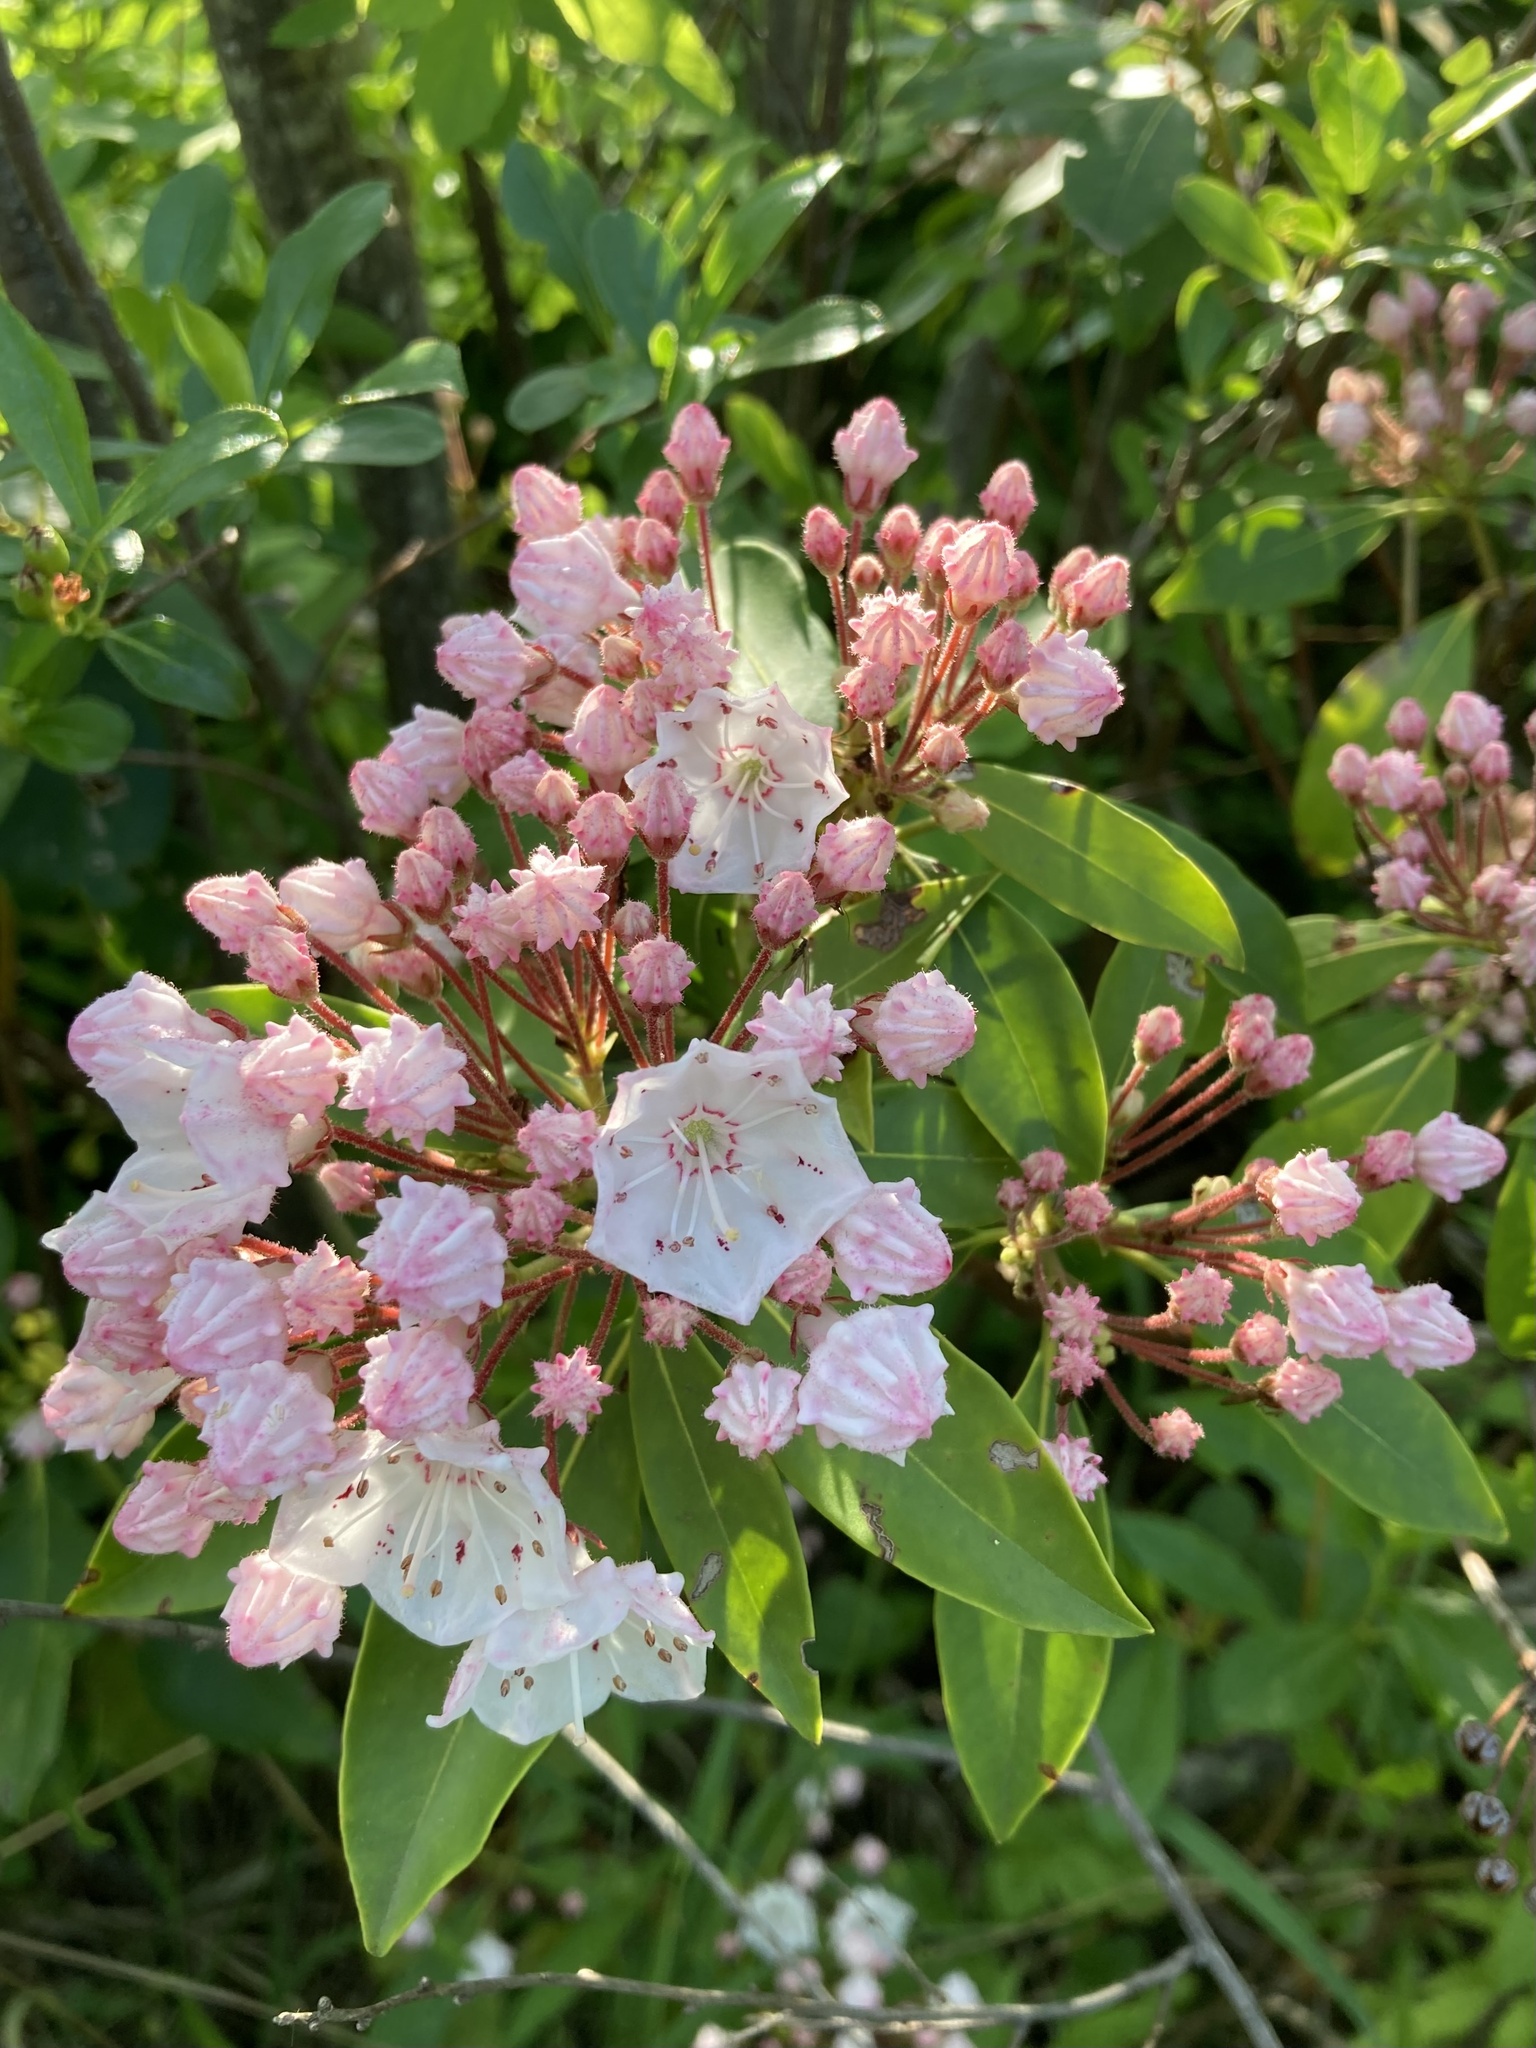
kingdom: Plantae
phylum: Tracheophyta
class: Magnoliopsida
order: Ericales
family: Ericaceae
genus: Kalmia
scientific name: Kalmia latifolia
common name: Mountain-laurel
